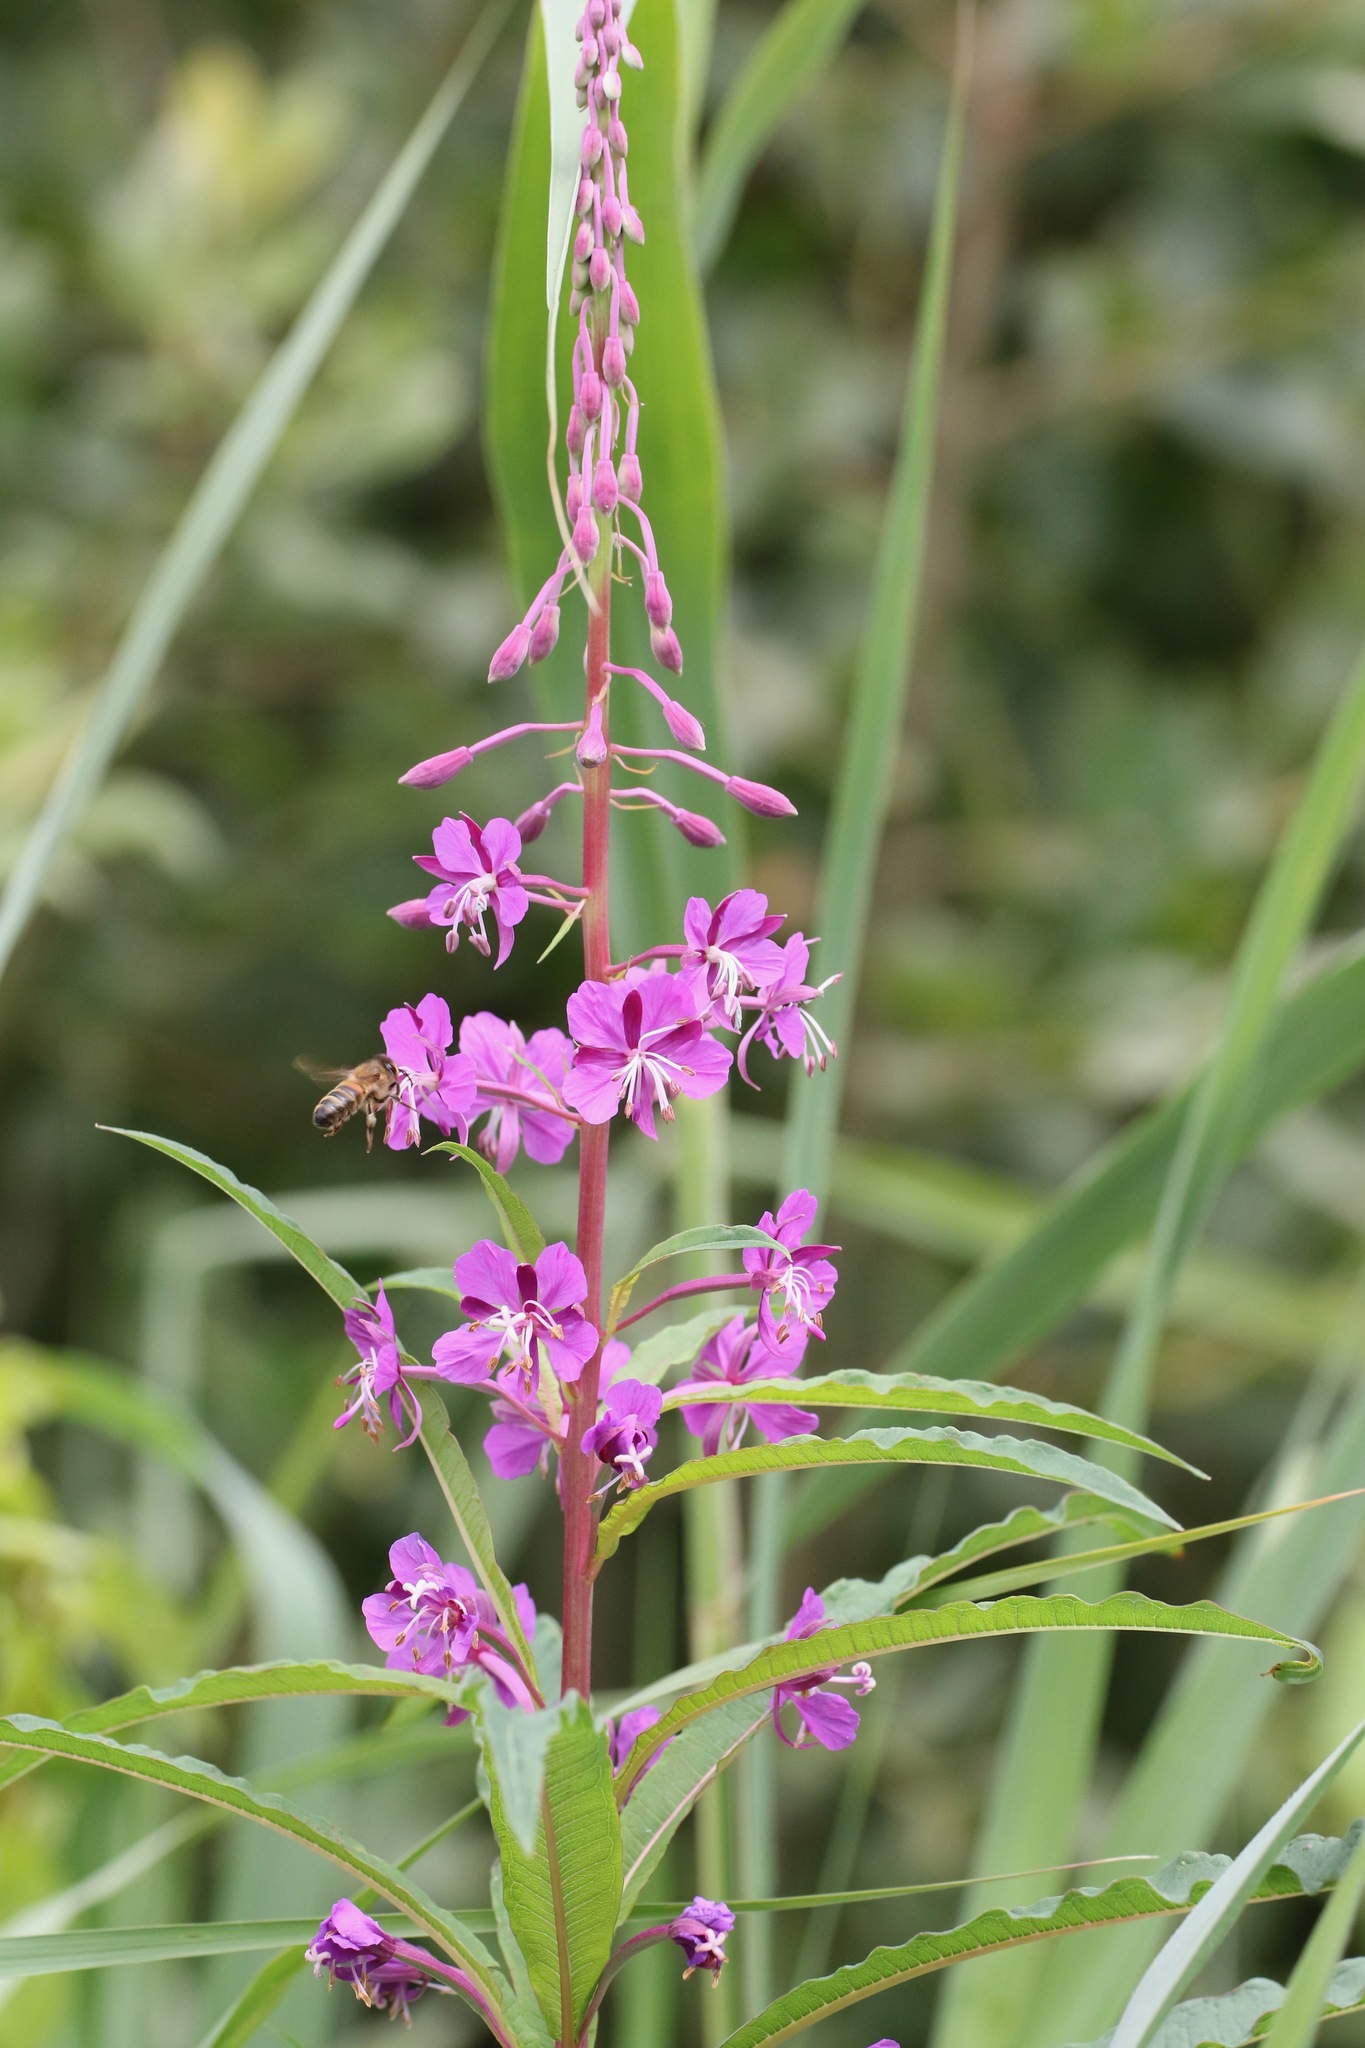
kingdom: Plantae
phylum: Tracheophyta
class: Magnoliopsida
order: Myrtales
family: Onagraceae
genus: Chamaenerion
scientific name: Chamaenerion angustifolium
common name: Fireweed
